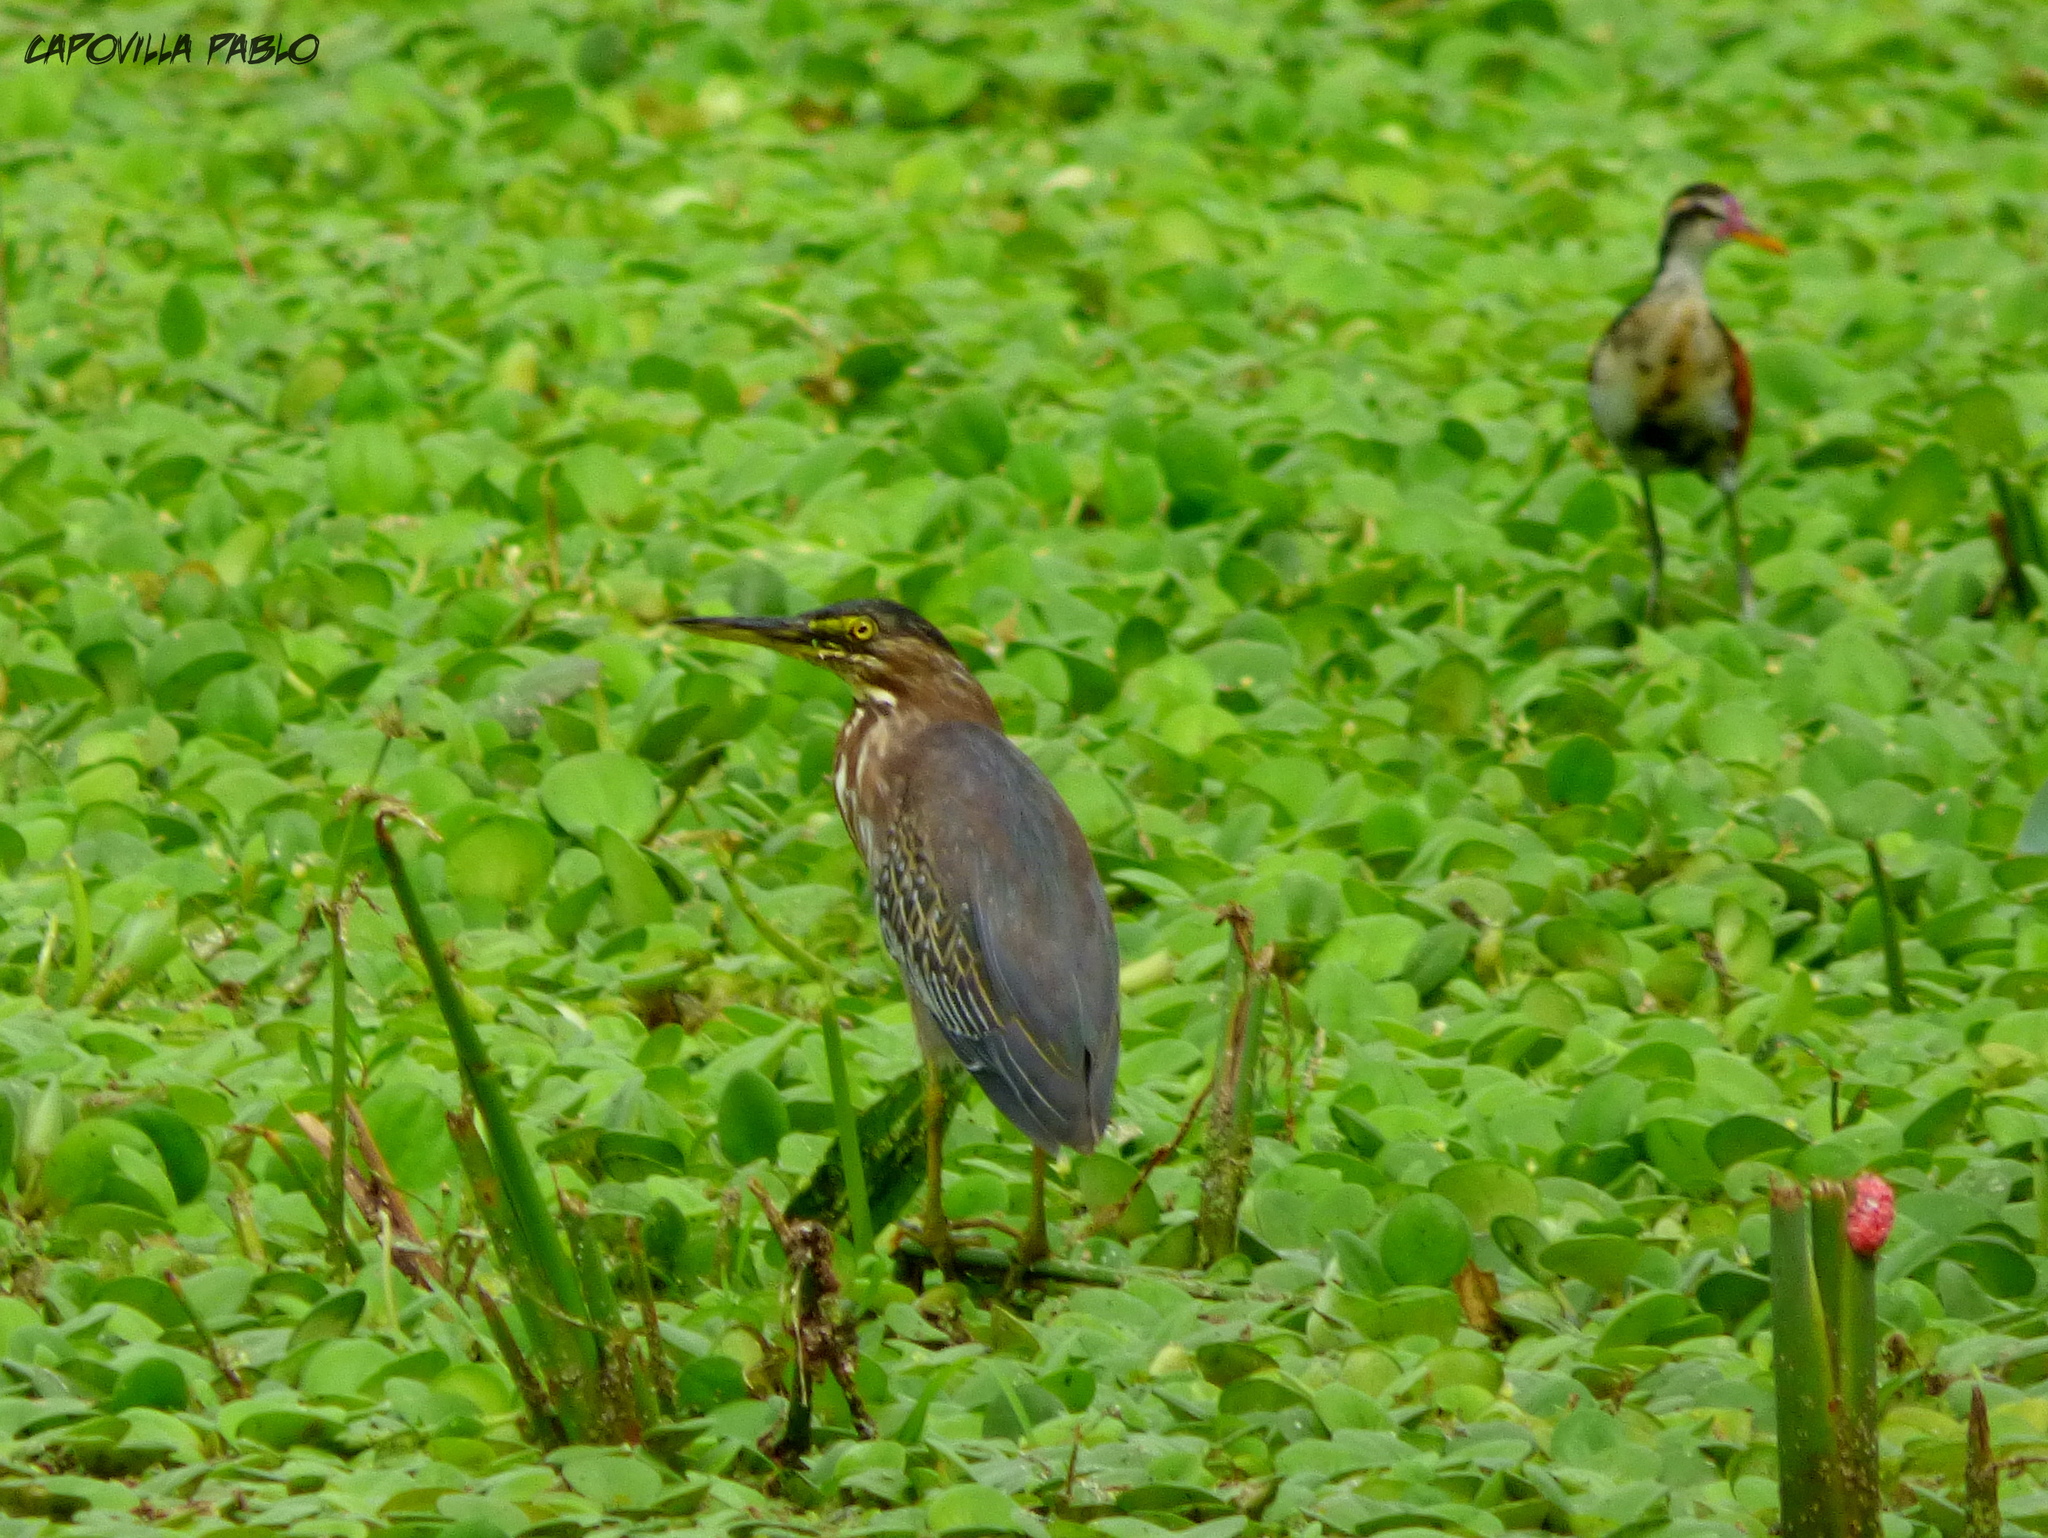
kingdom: Animalia
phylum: Chordata
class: Aves
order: Pelecaniformes
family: Ardeidae
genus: Butorides
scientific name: Butorides striata
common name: Striated heron
